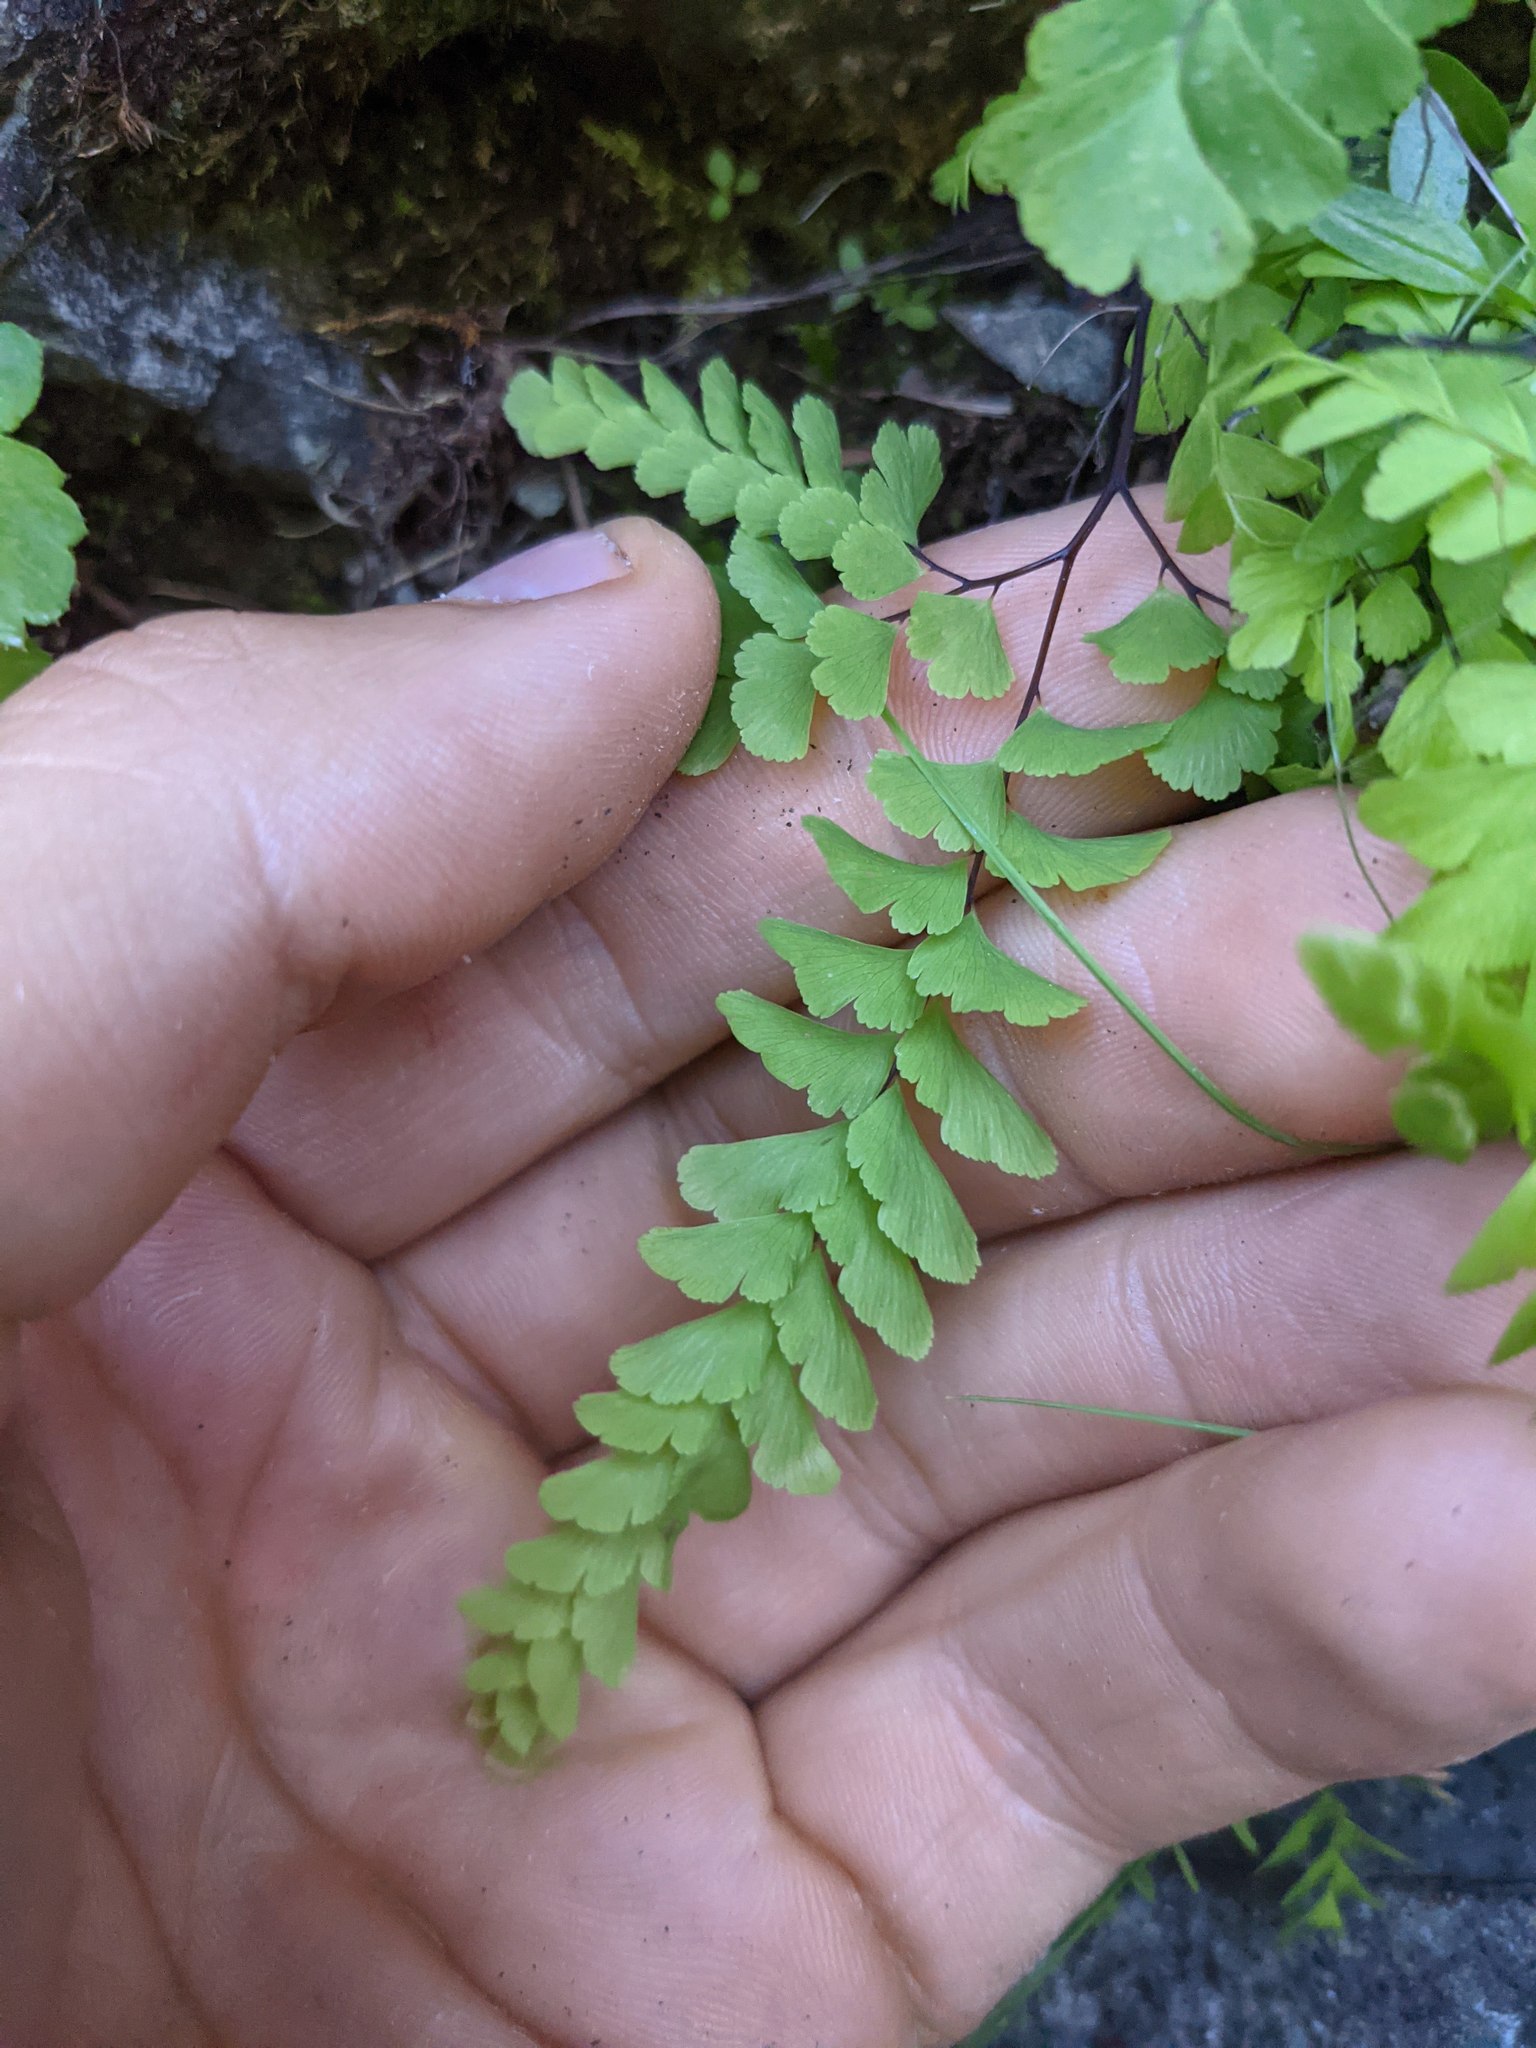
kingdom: Plantae
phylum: Tracheophyta
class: Polypodiopsida
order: Polypodiales
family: Pteridaceae
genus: Adiantum
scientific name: Adiantum aleuticum
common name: Aleutian maidenhair fern
